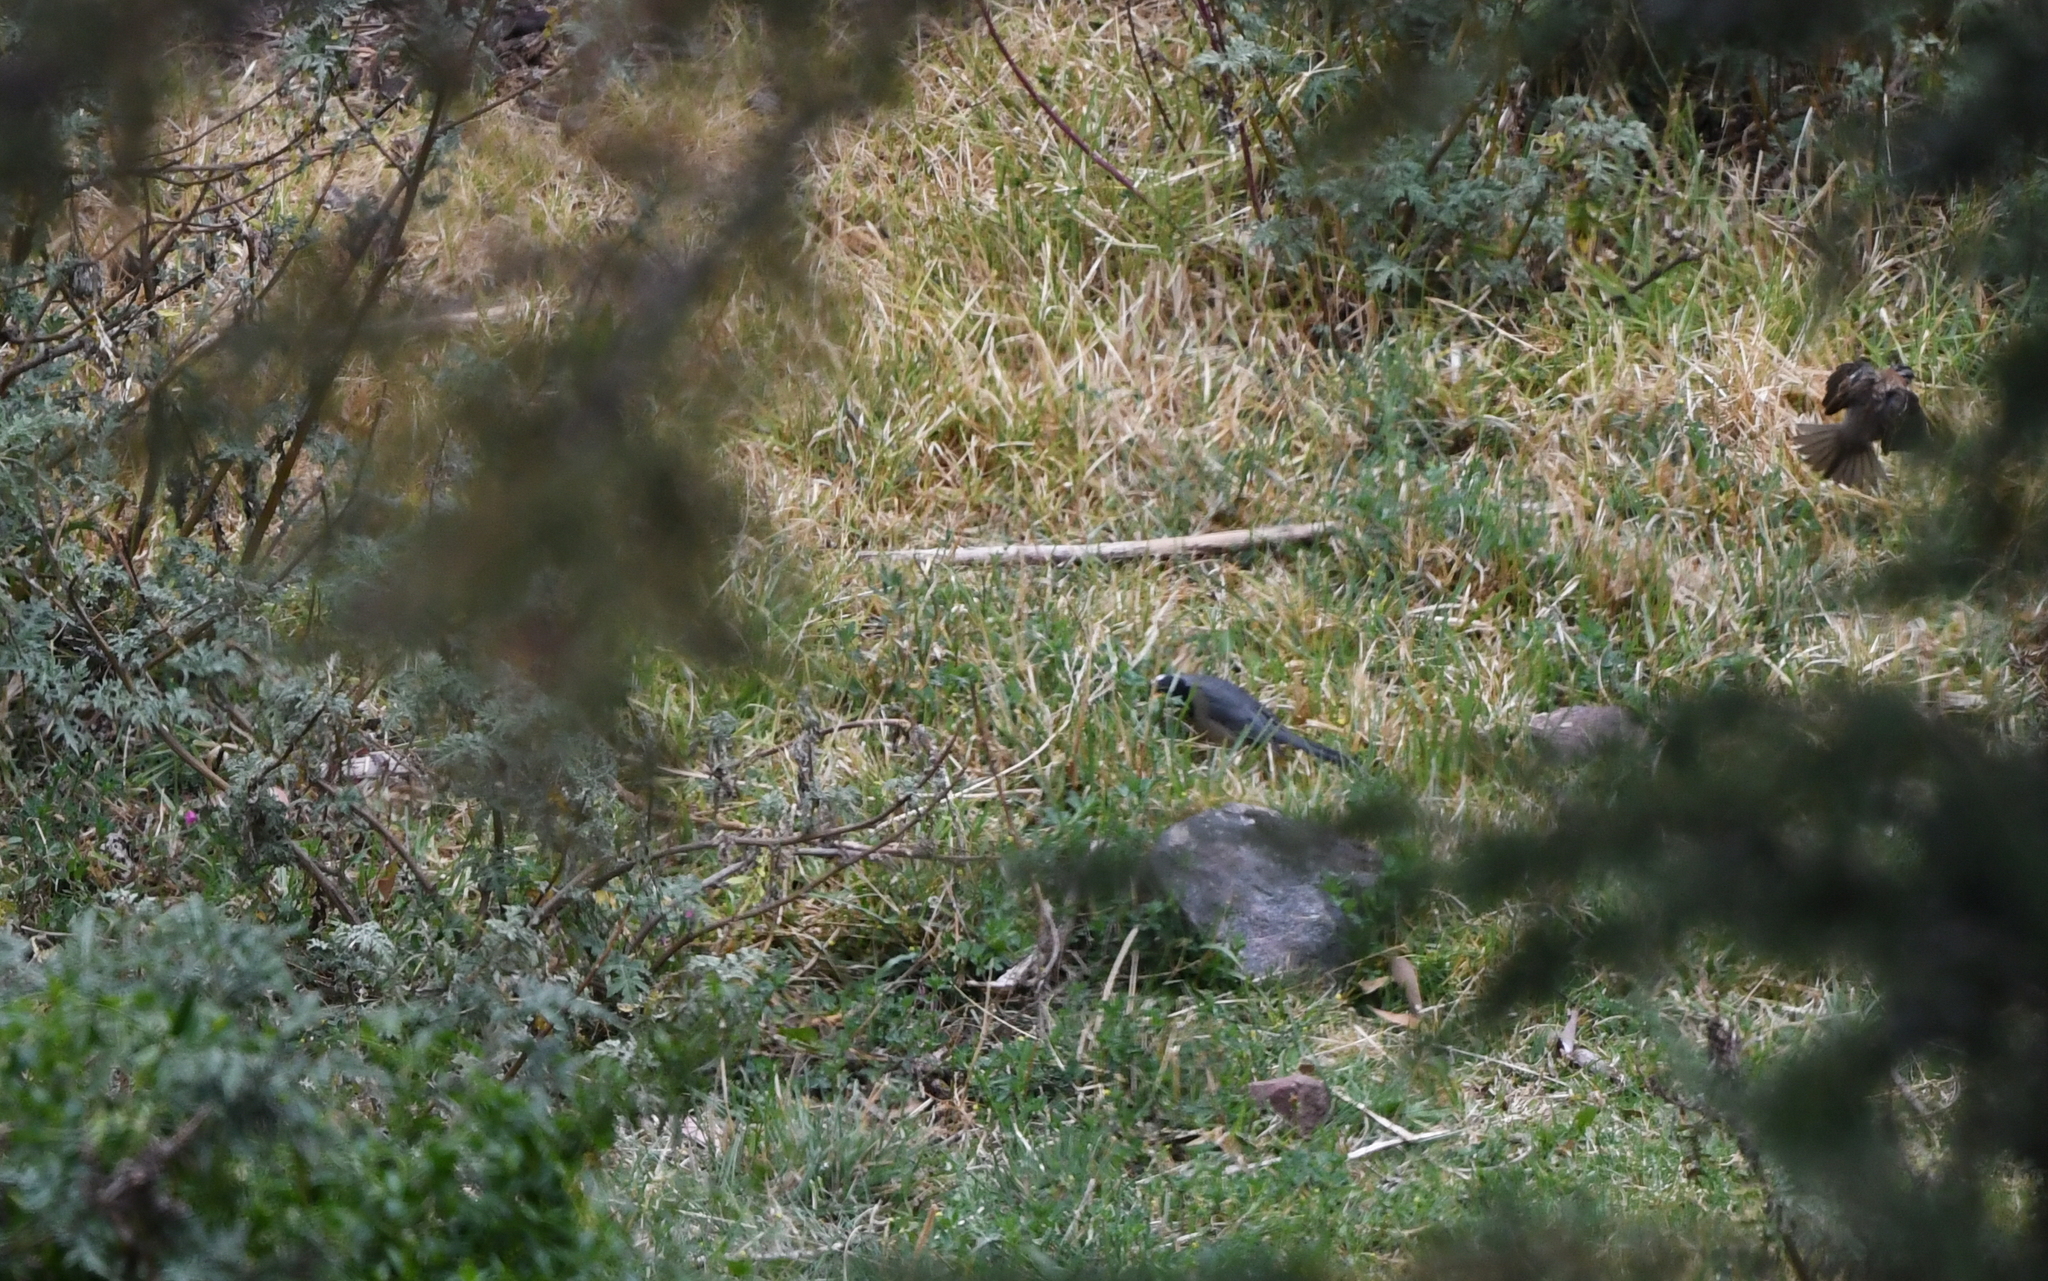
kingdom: Animalia
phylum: Chordata
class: Aves
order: Passeriformes
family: Thraupidae
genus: Saltator
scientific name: Saltator aurantiirostris
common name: Golden-billed saltator
